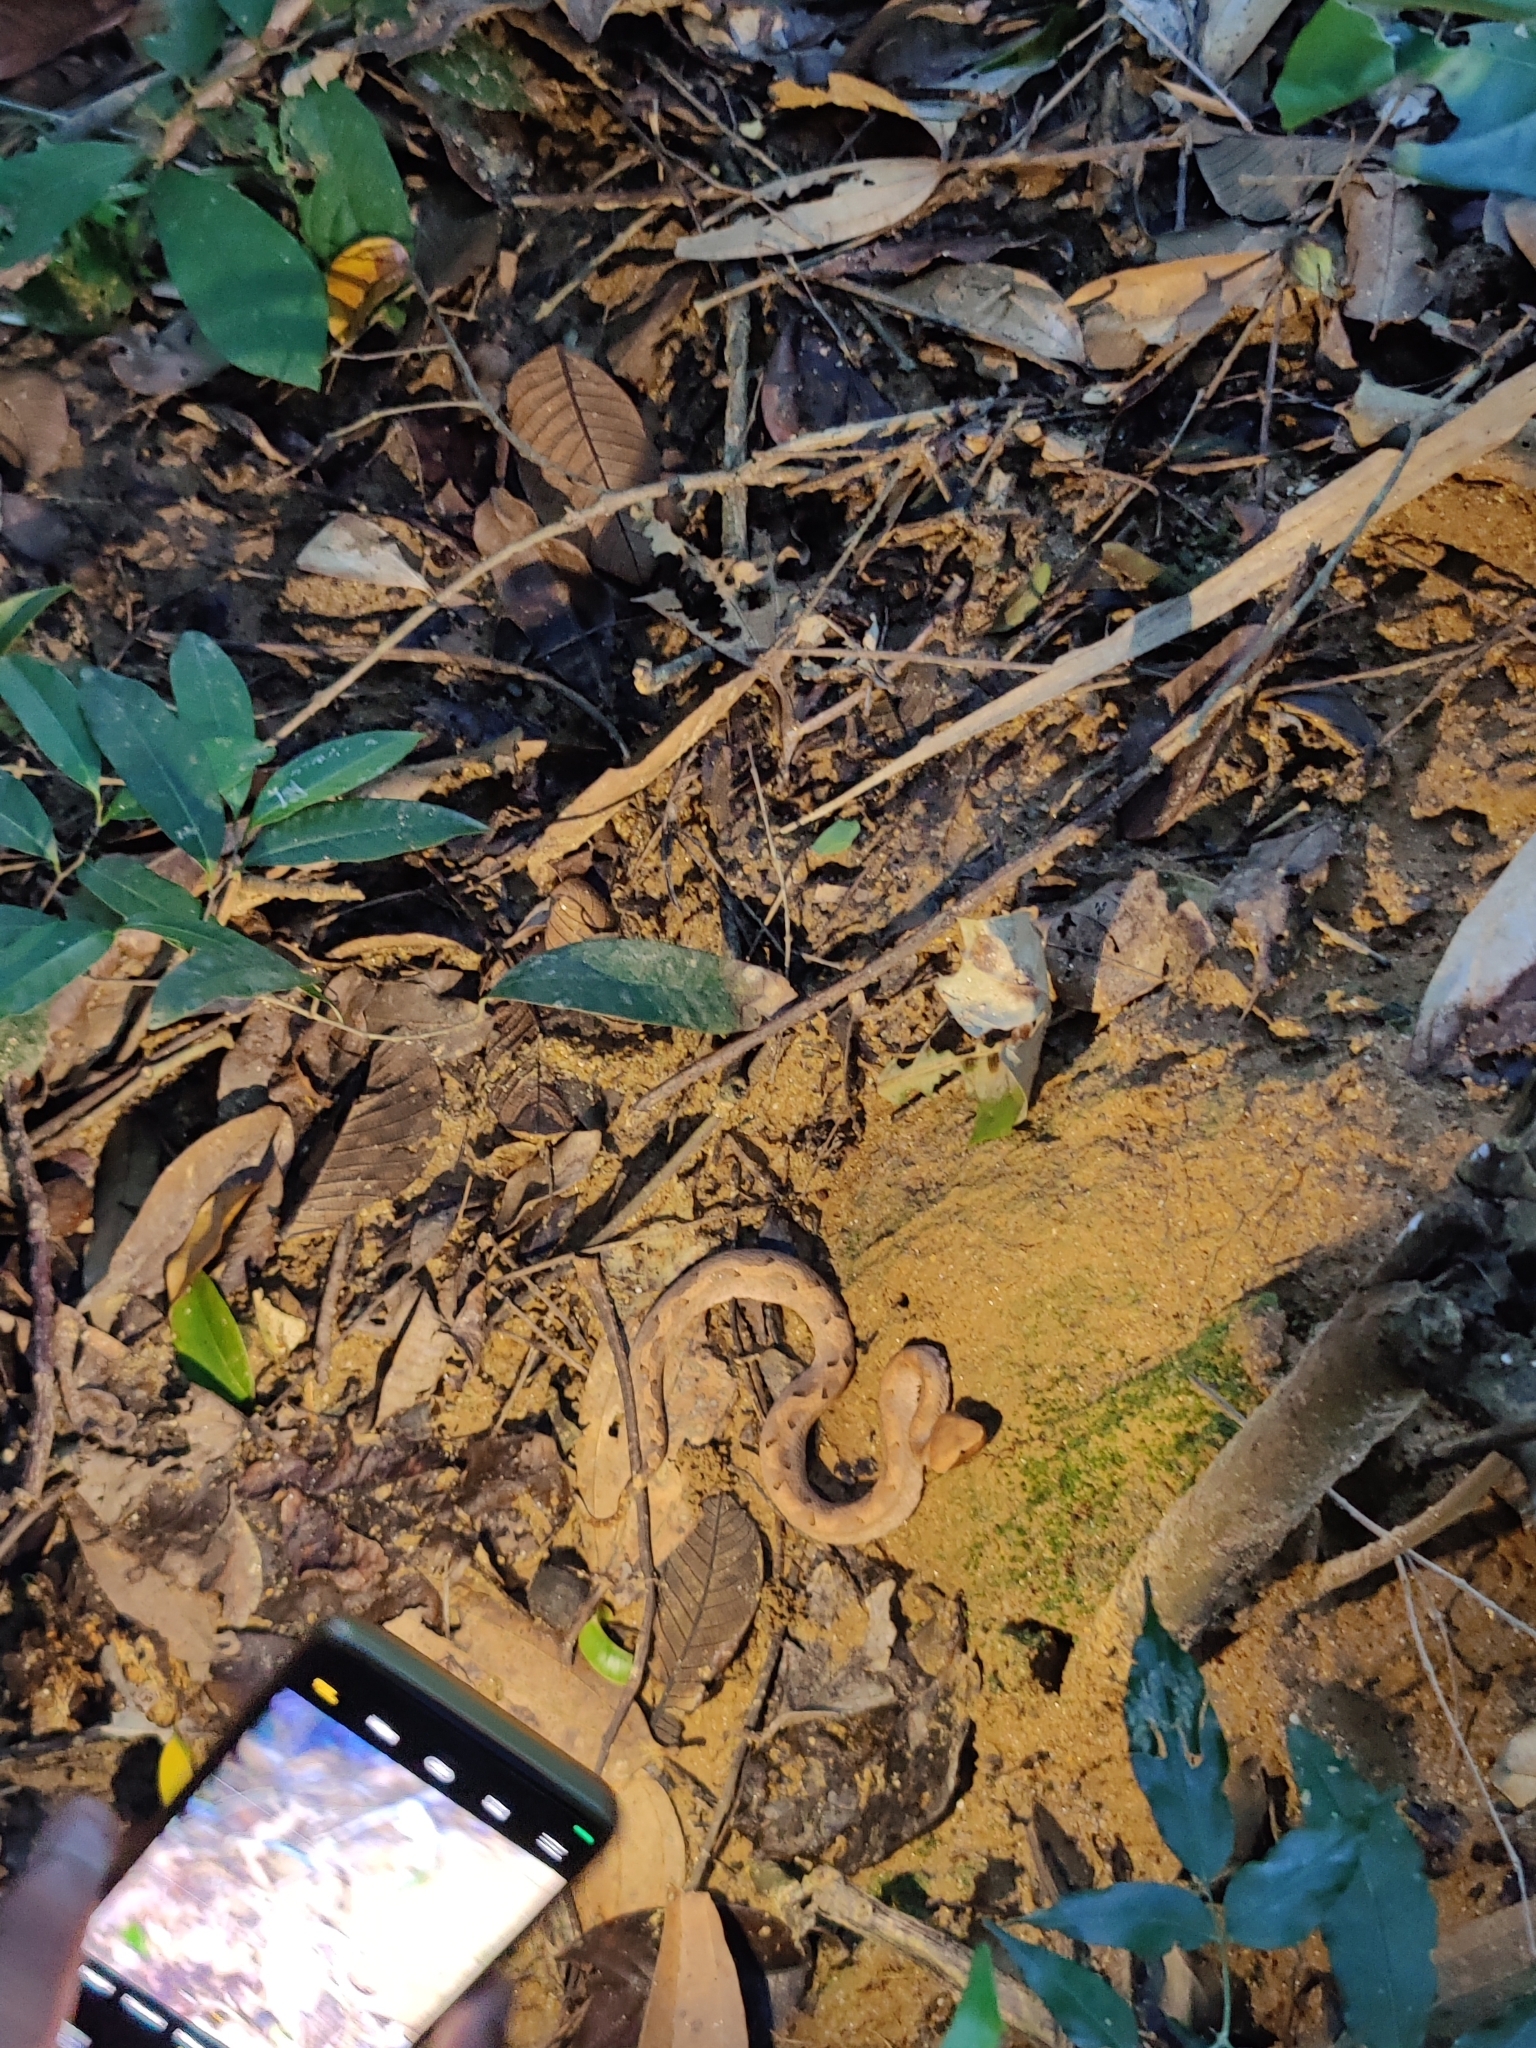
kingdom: Animalia
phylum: Chordata
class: Squamata
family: Viperidae
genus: Hypnale
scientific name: Hypnale hypnale
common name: Hump-nosed moccasin
